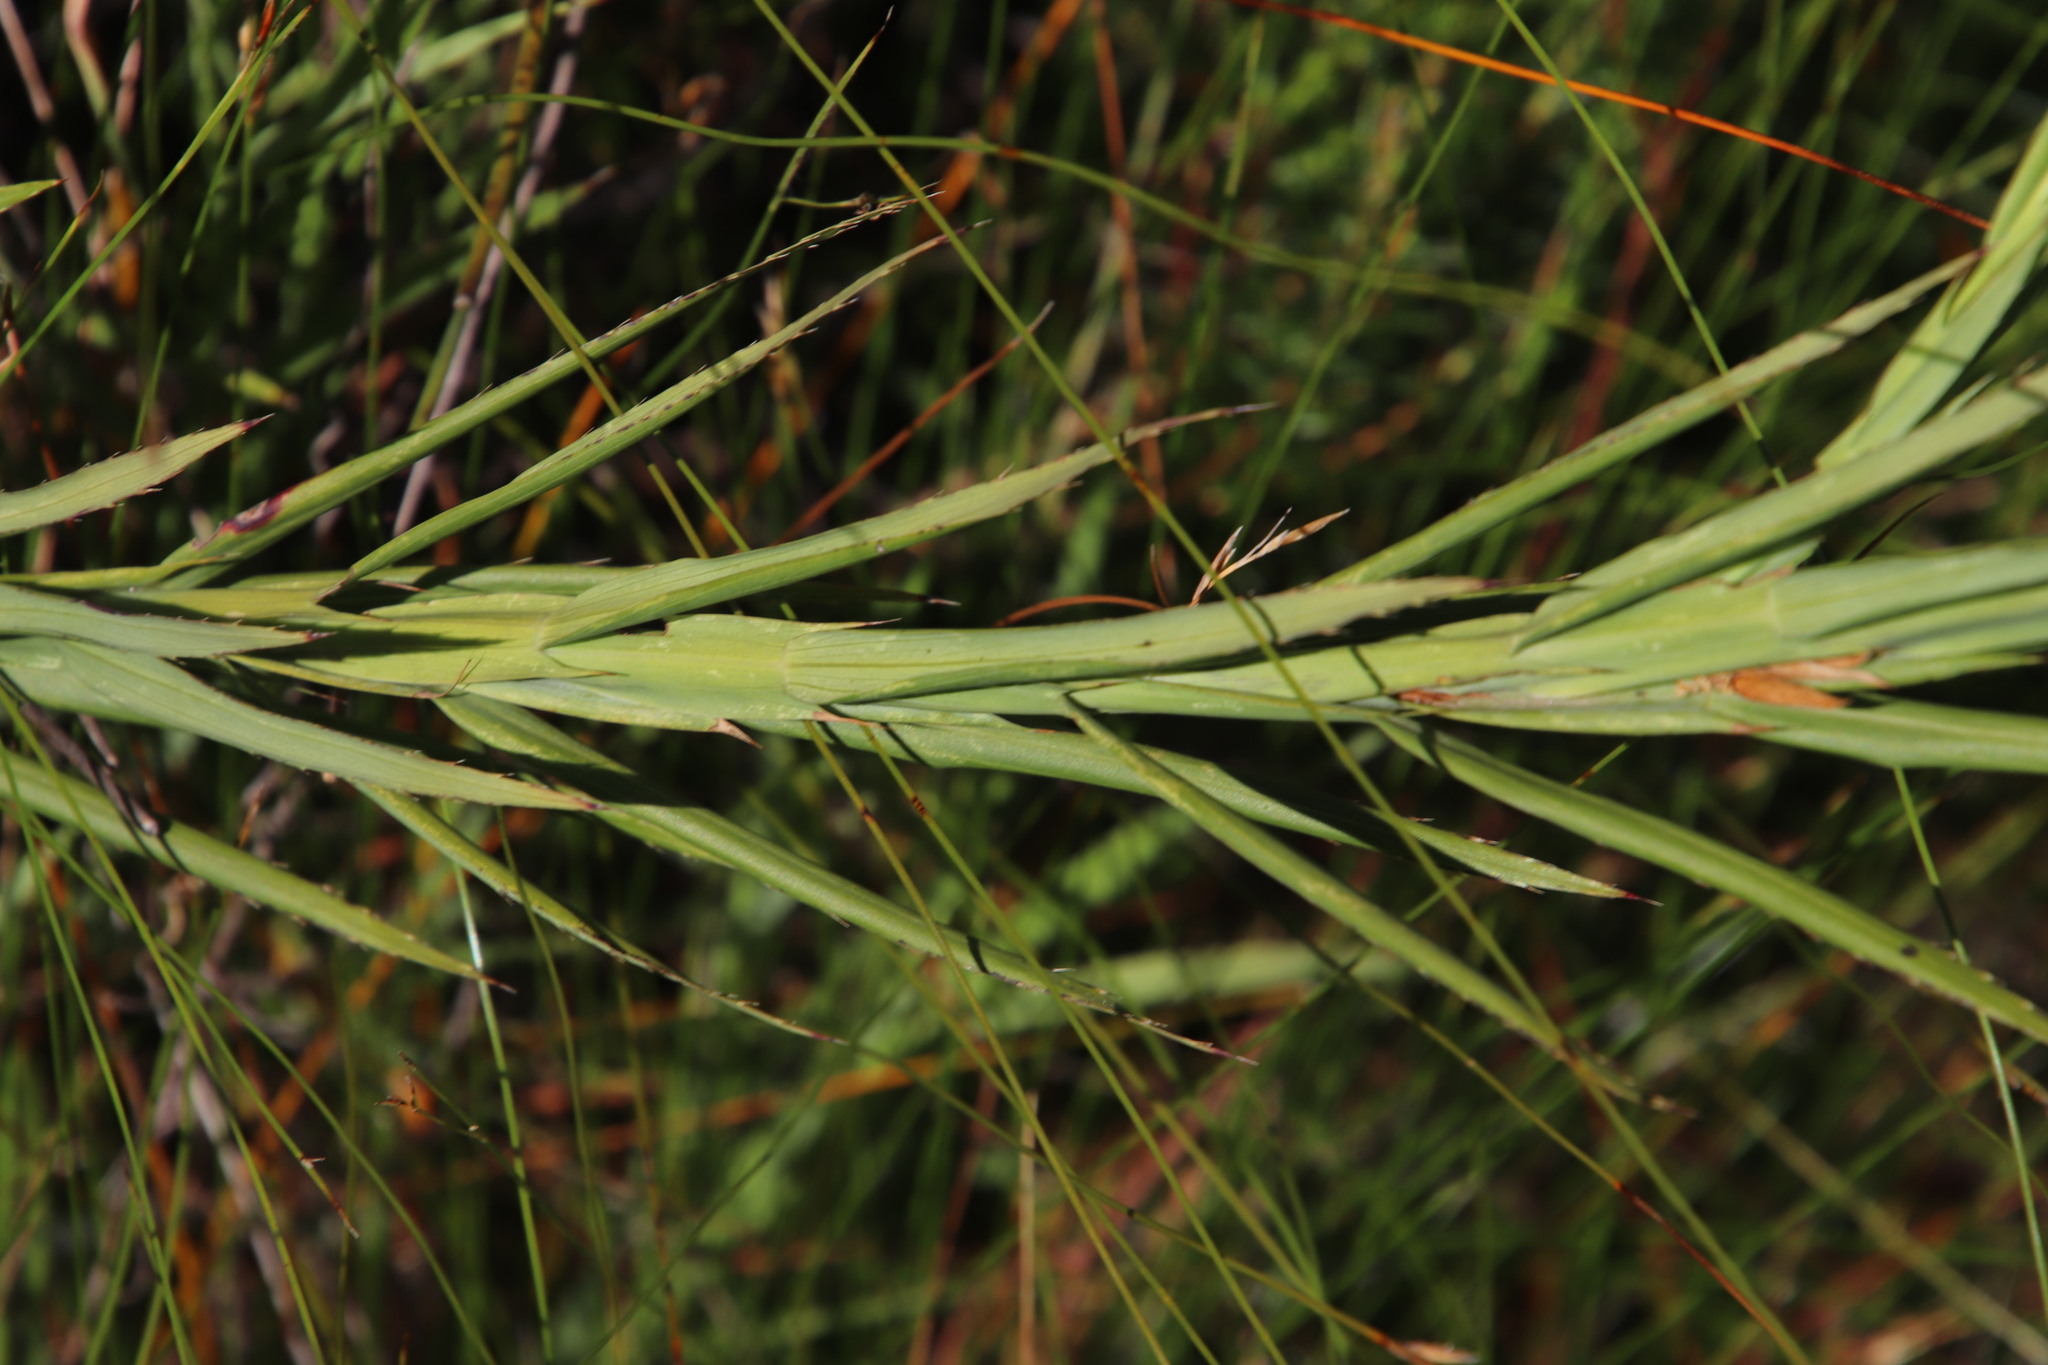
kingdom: Plantae
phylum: Tracheophyta
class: Magnoliopsida
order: Rosales
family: Rosaceae
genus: Cliffortia
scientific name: Cliffortia graminea
